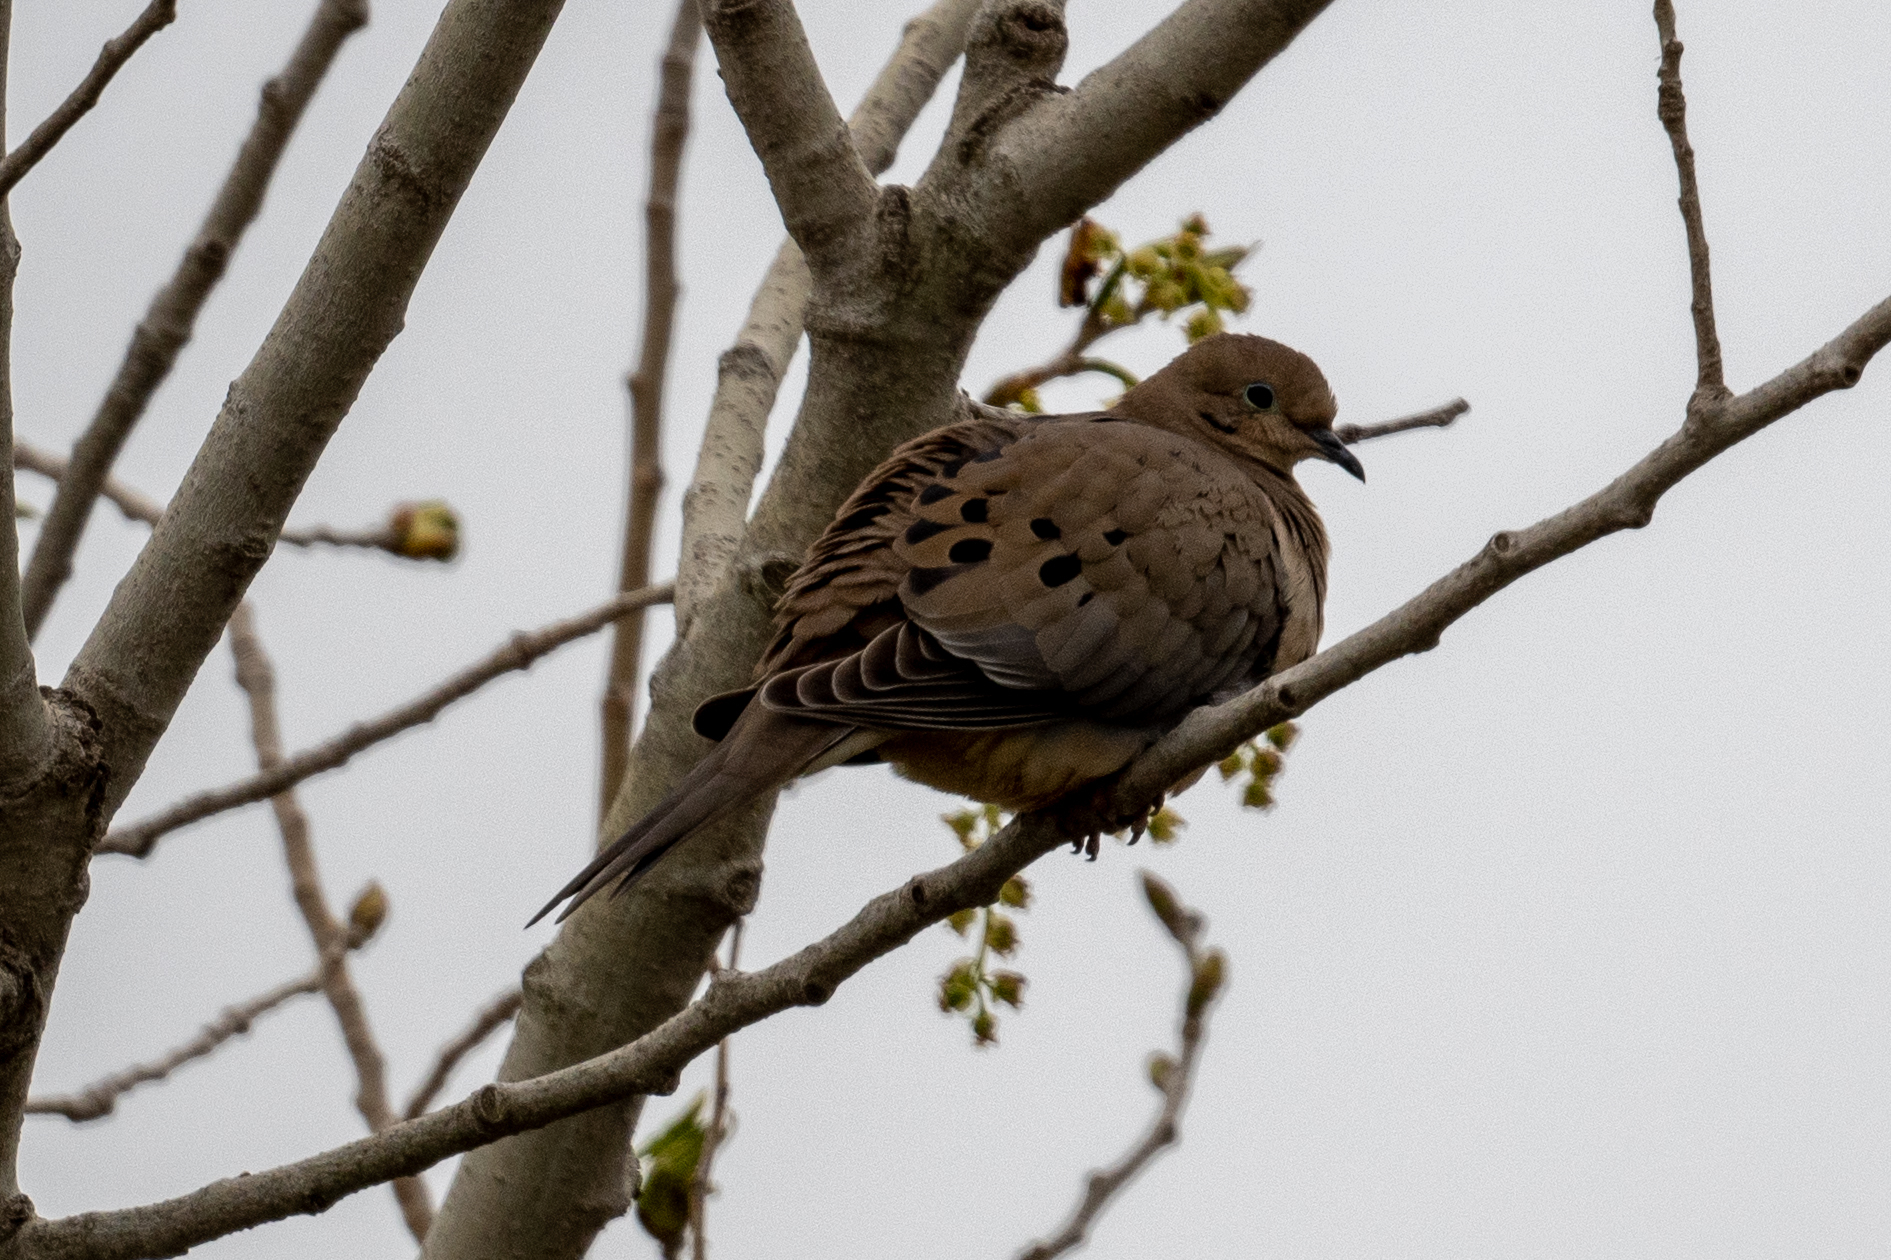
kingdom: Animalia
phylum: Chordata
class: Aves
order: Columbiformes
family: Columbidae
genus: Zenaida
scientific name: Zenaida macroura
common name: Mourning dove
